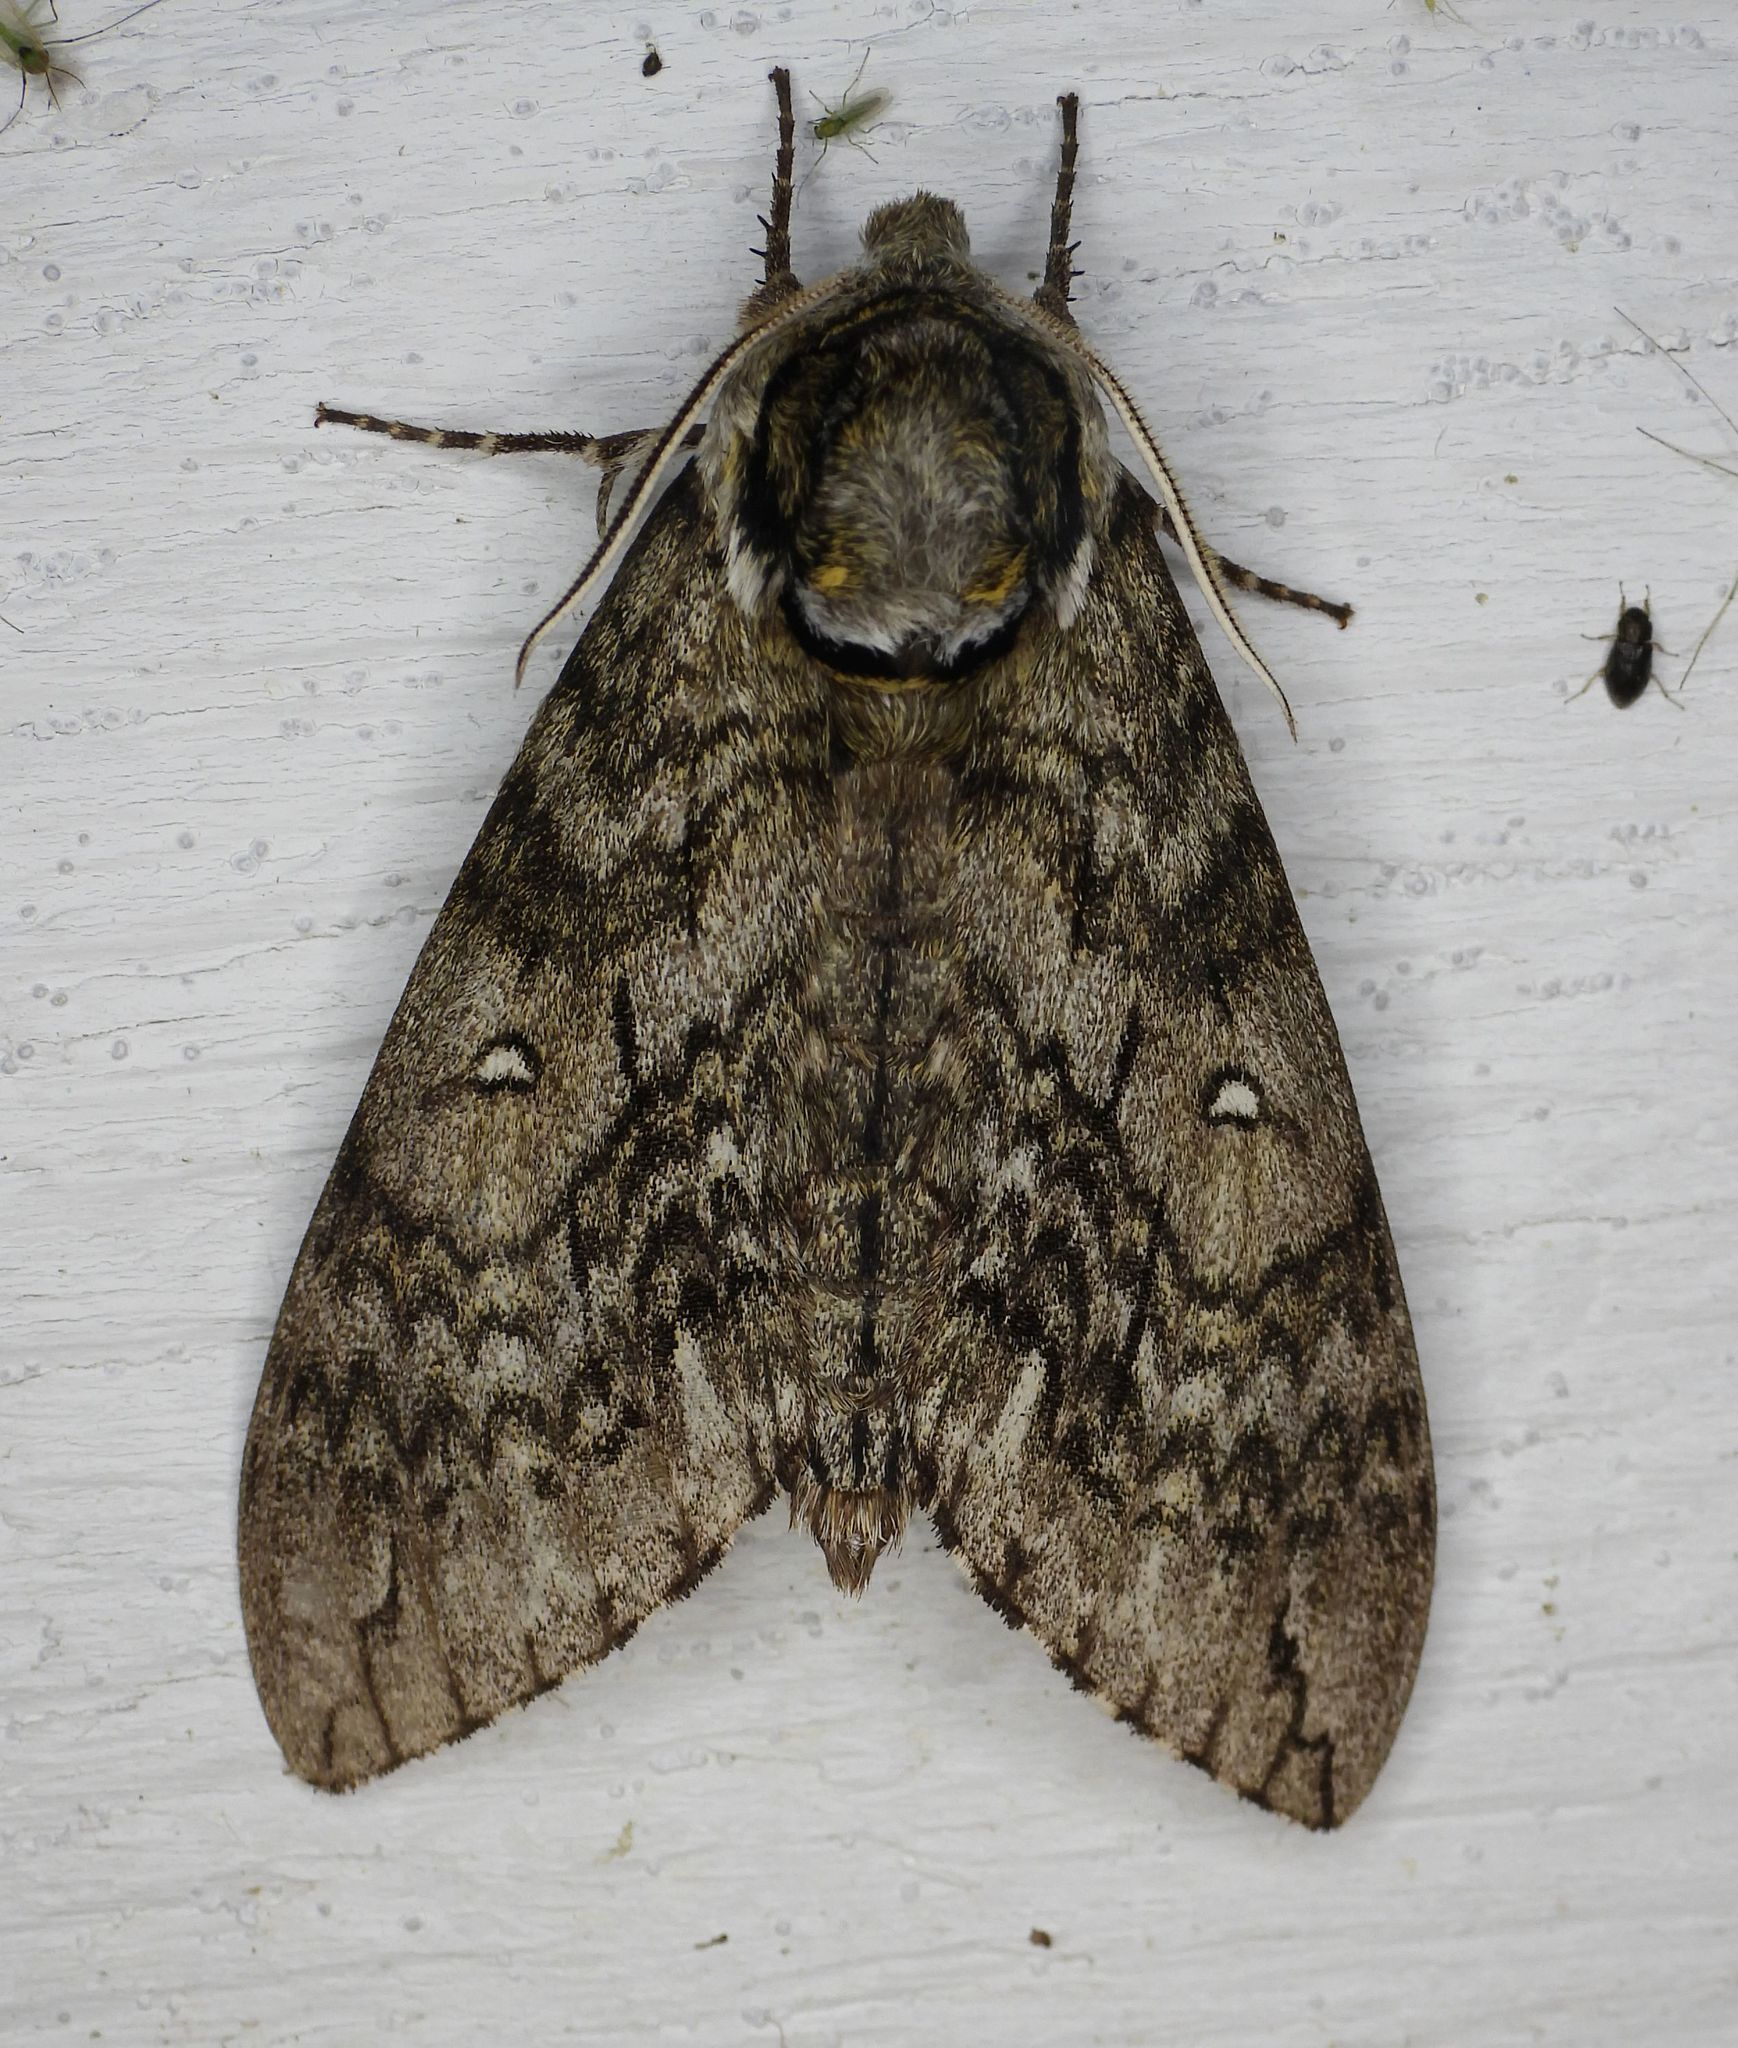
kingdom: Animalia
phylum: Arthropoda
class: Insecta
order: Lepidoptera
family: Sphingidae
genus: Ceratomia
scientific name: Ceratomia undulosa
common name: Waved sphinx
